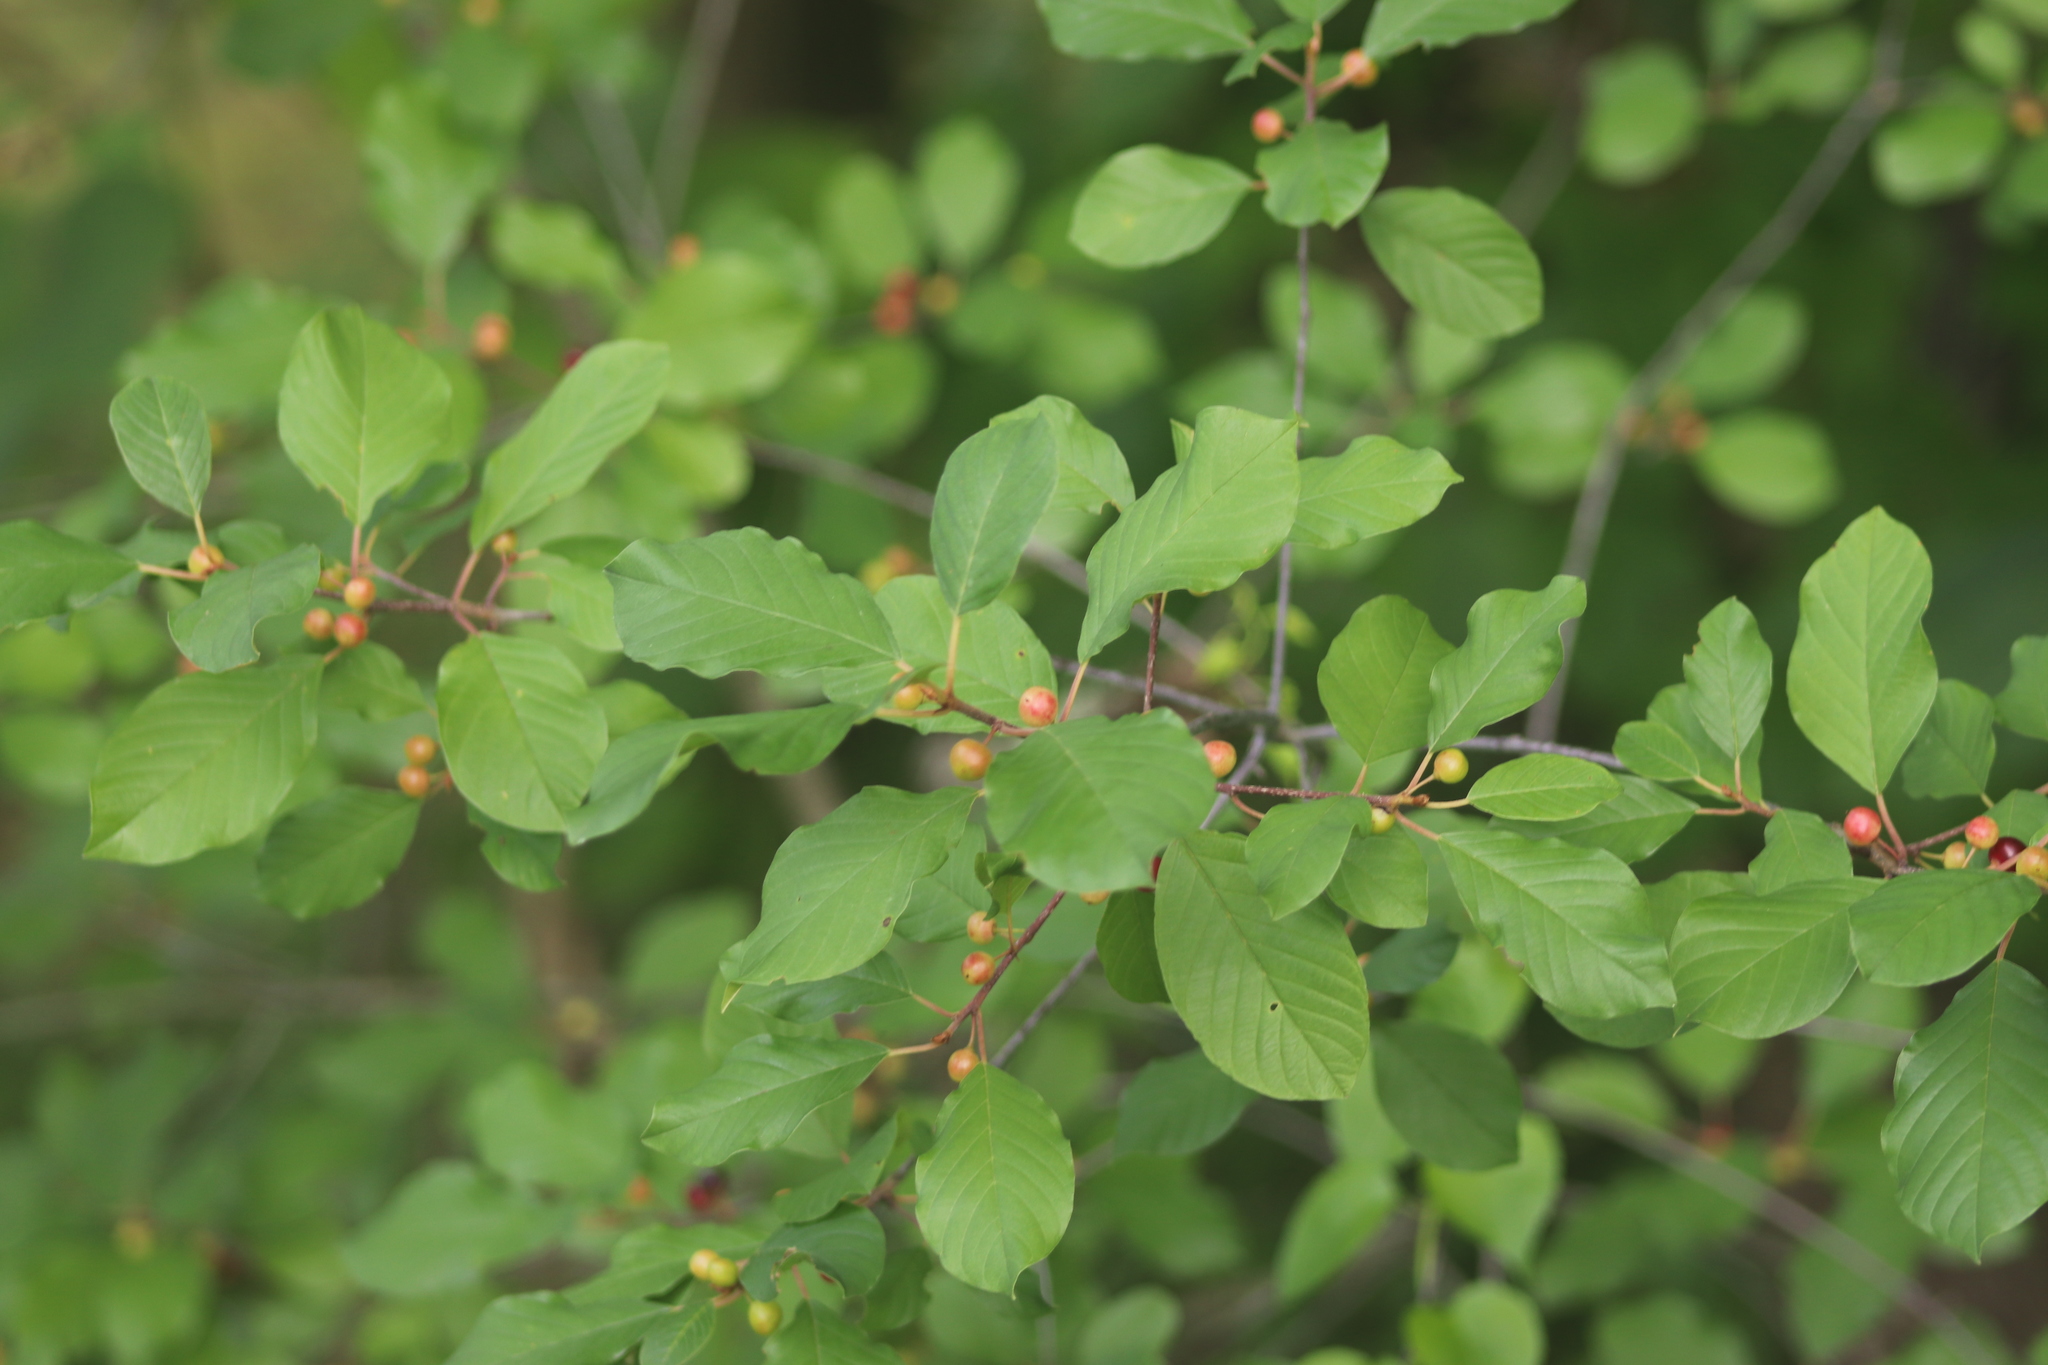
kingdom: Plantae
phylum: Tracheophyta
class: Magnoliopsida
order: Rosales
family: Rhamnaceae
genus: Frangula
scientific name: Frangula alnus
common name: Alder buckthorn
